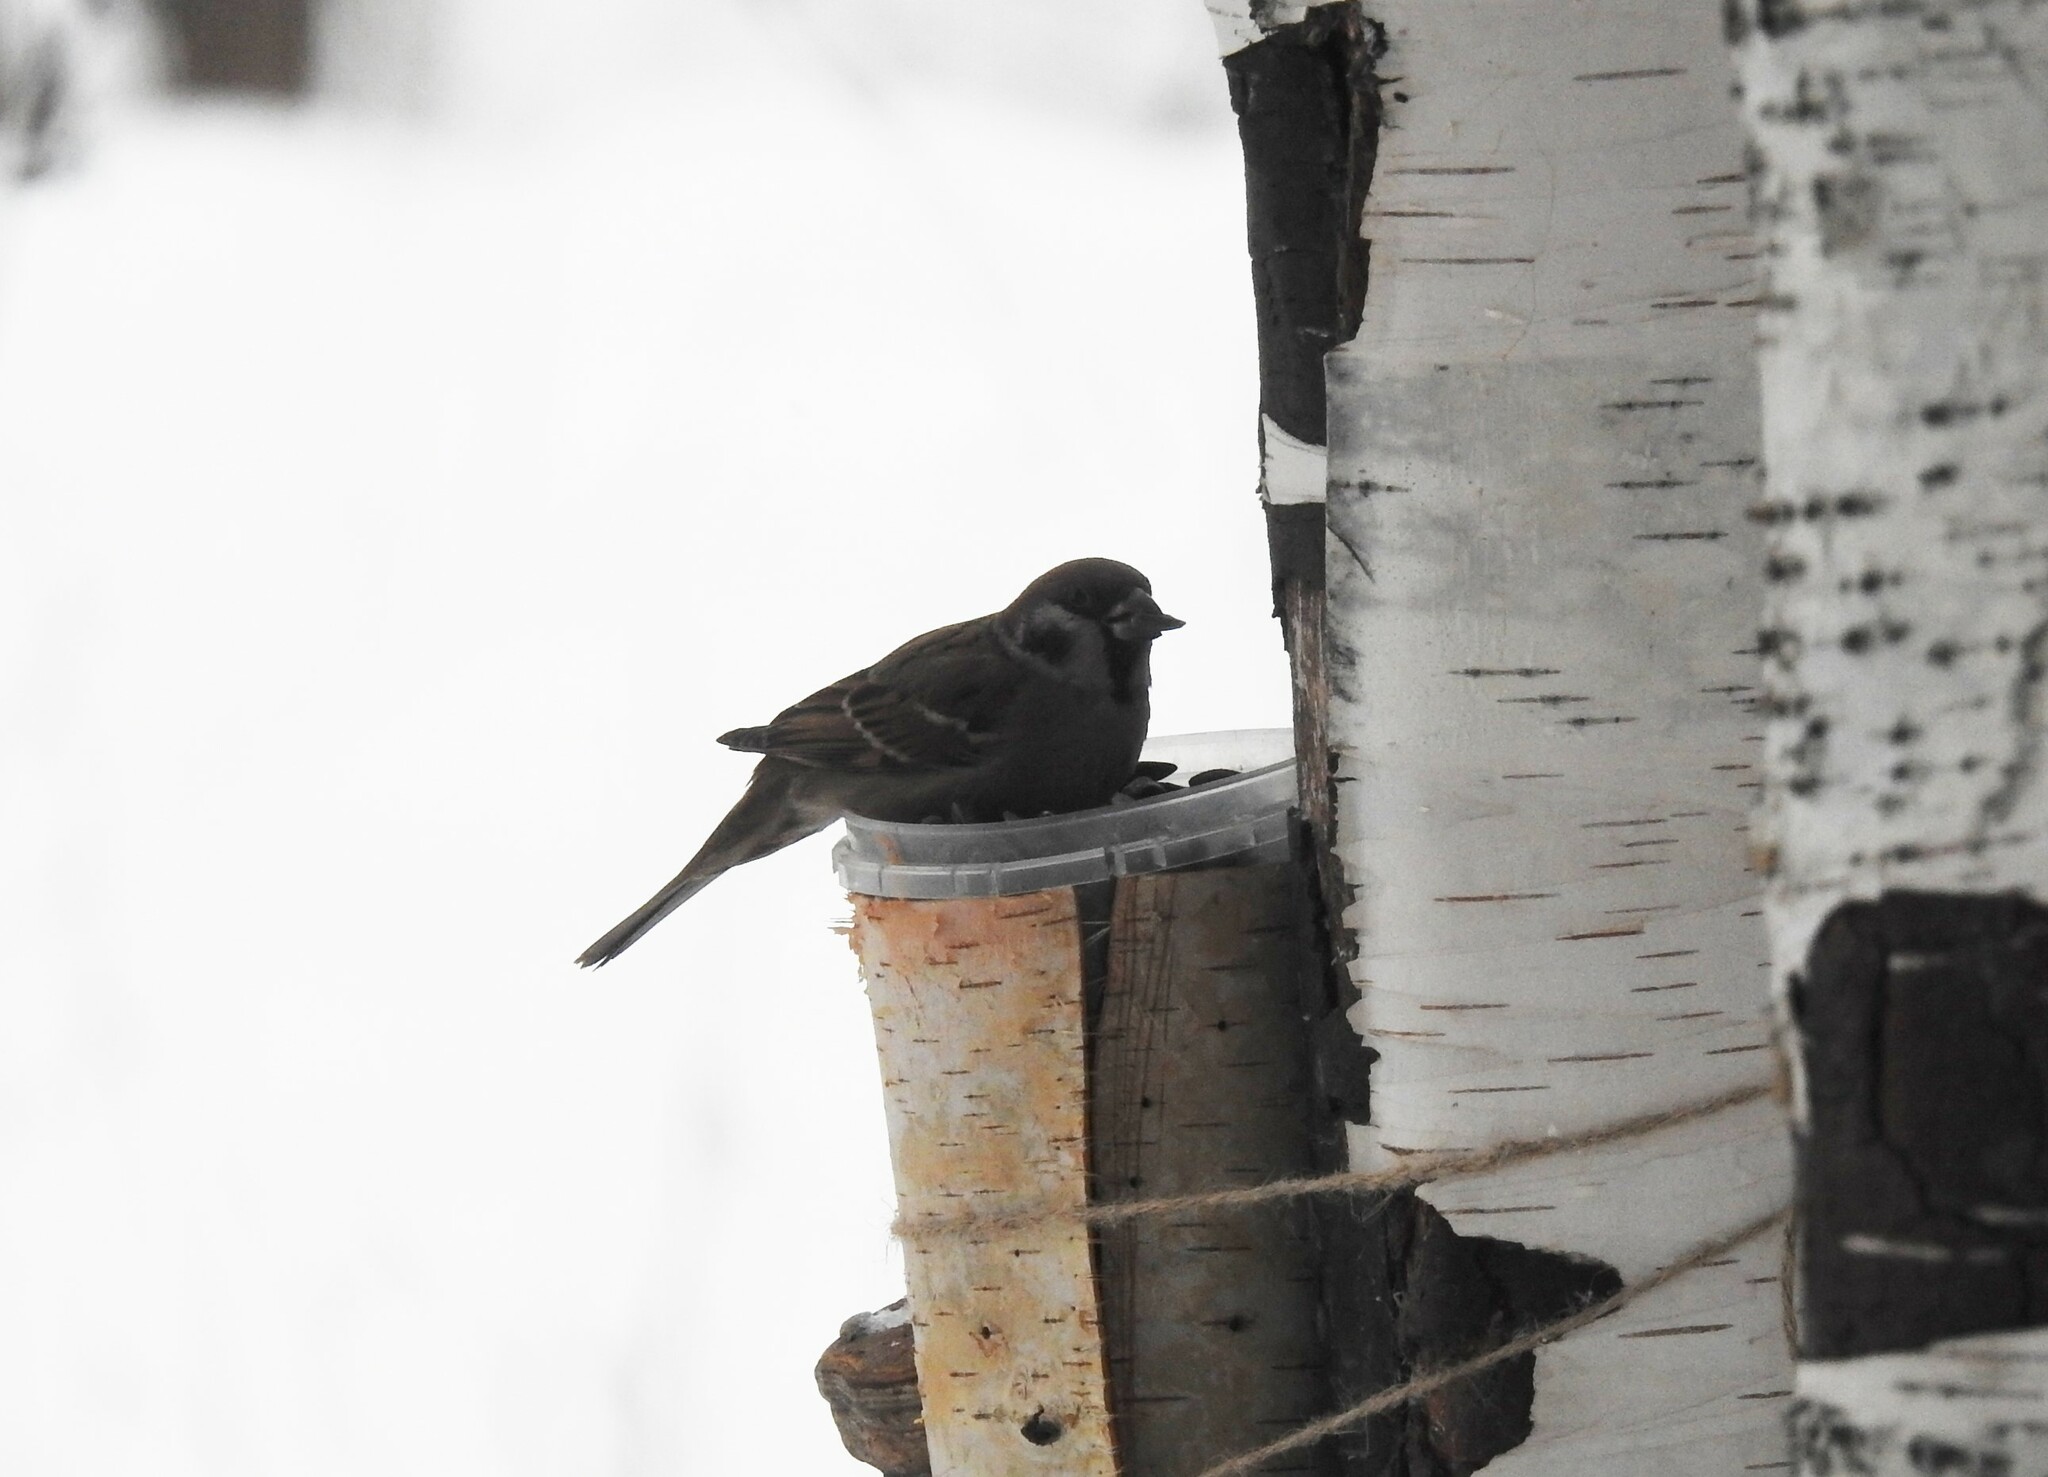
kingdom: Animalia
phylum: Chordata
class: Aves
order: Passeriformes
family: Passeridae
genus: Passer
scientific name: Passer montanus
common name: Eurasian tree sparrow
